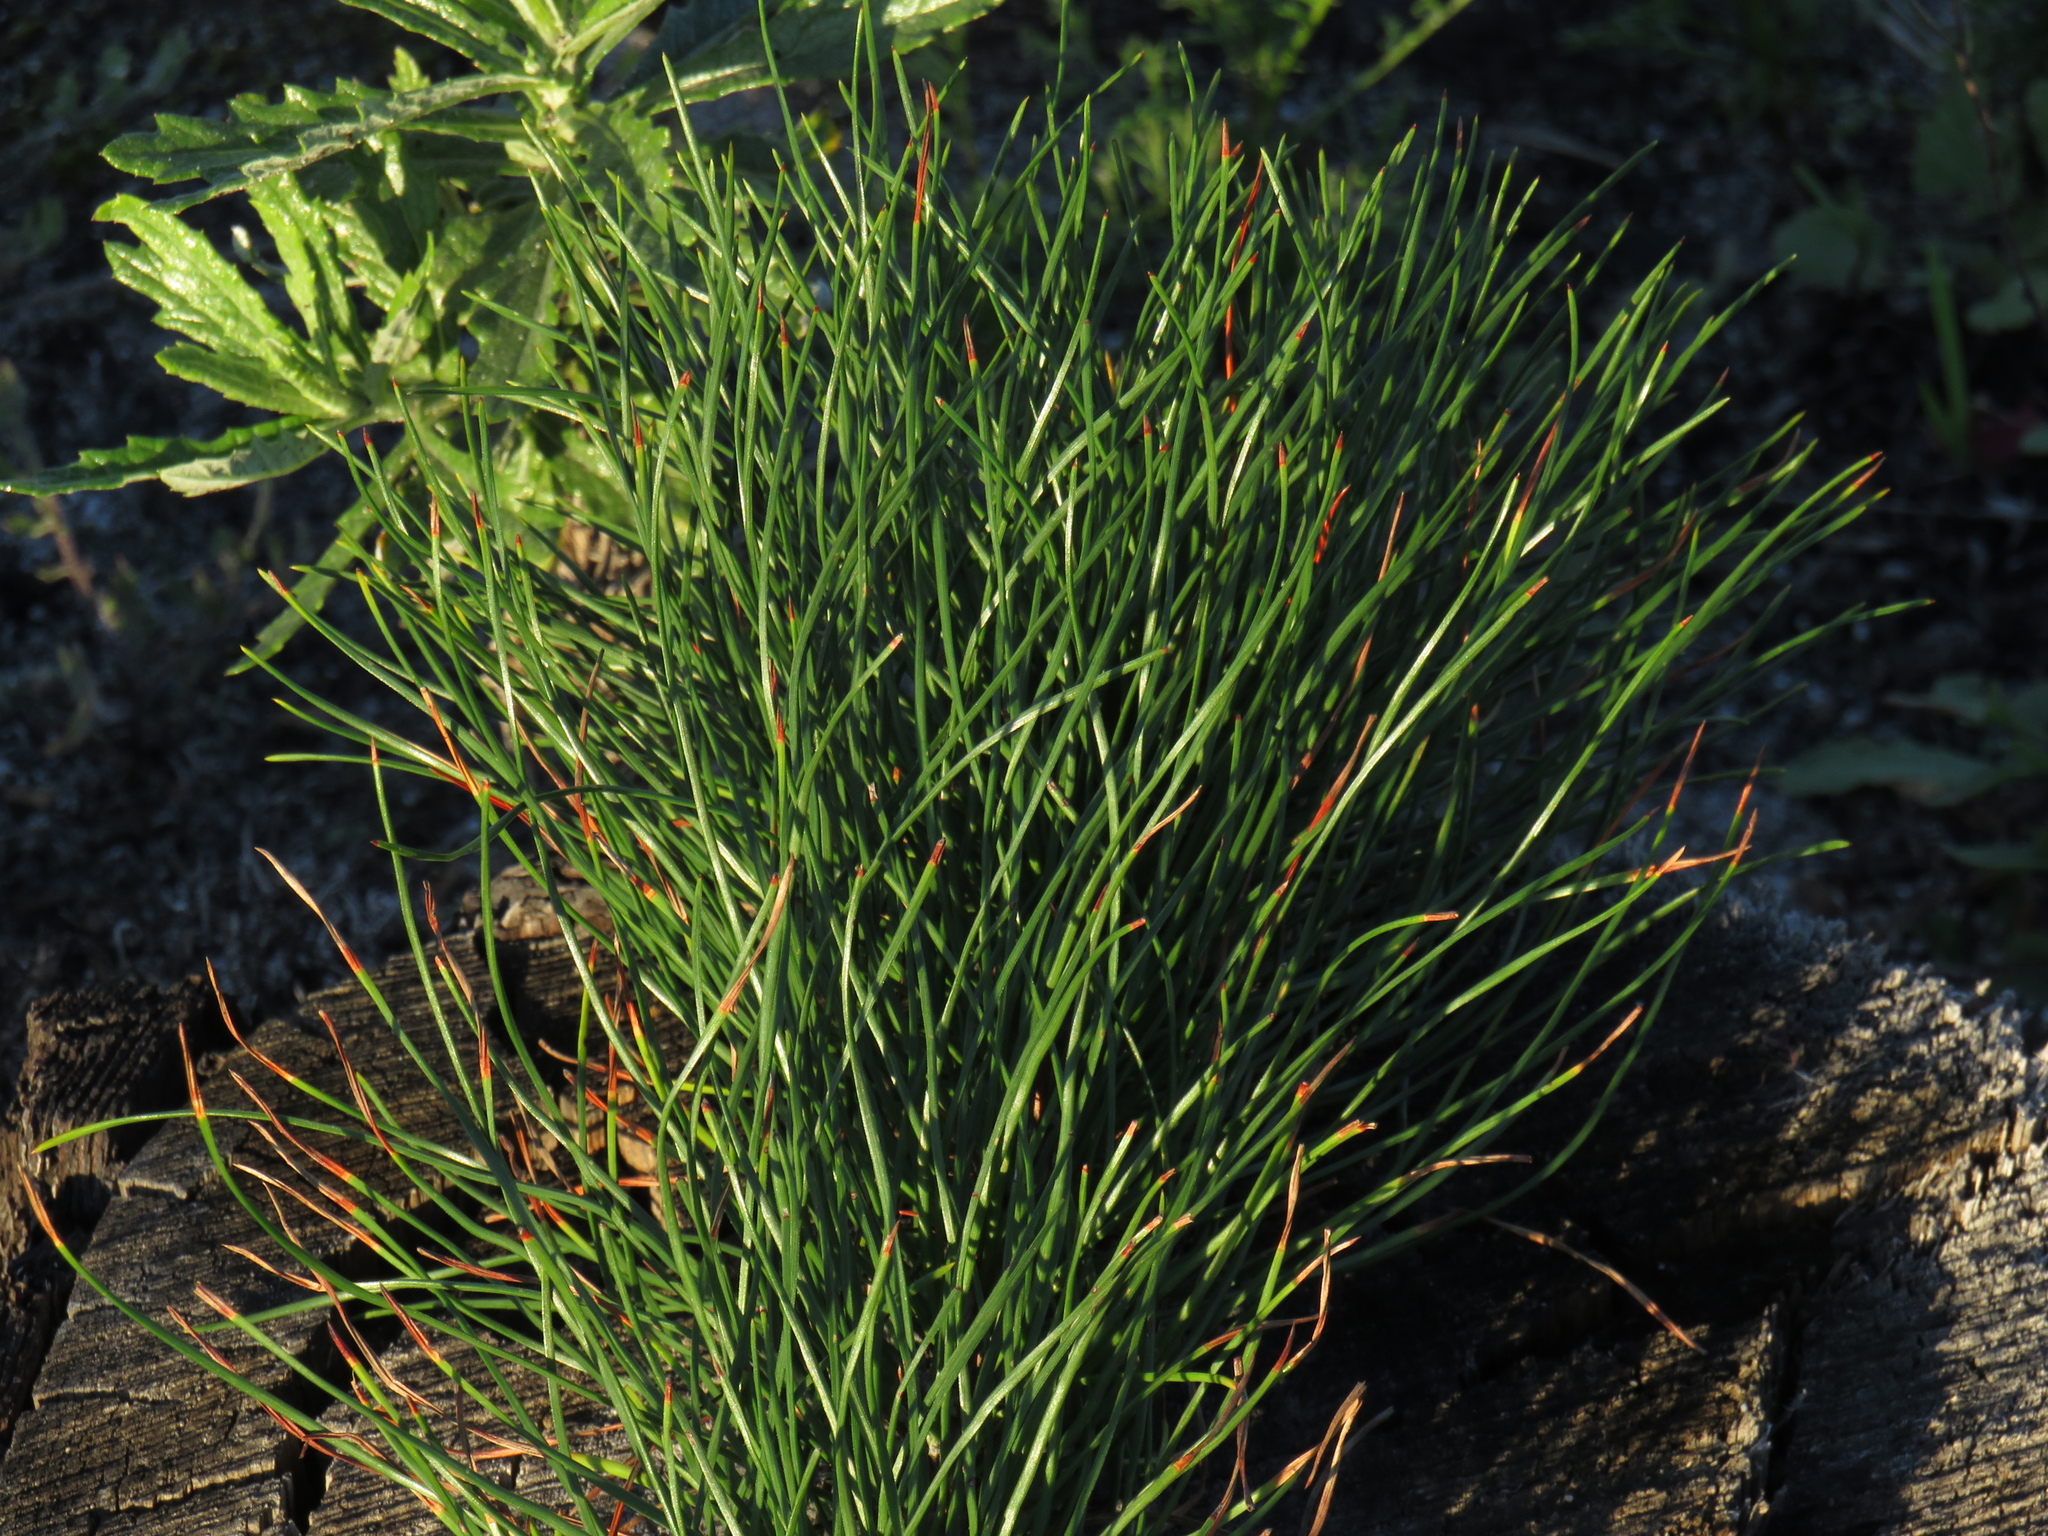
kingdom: Plantae
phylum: Tracheophyta
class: Pinopsida
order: Pinales
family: Pinaceae
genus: Pinus
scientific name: Pinus radiata
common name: Monterey pine
